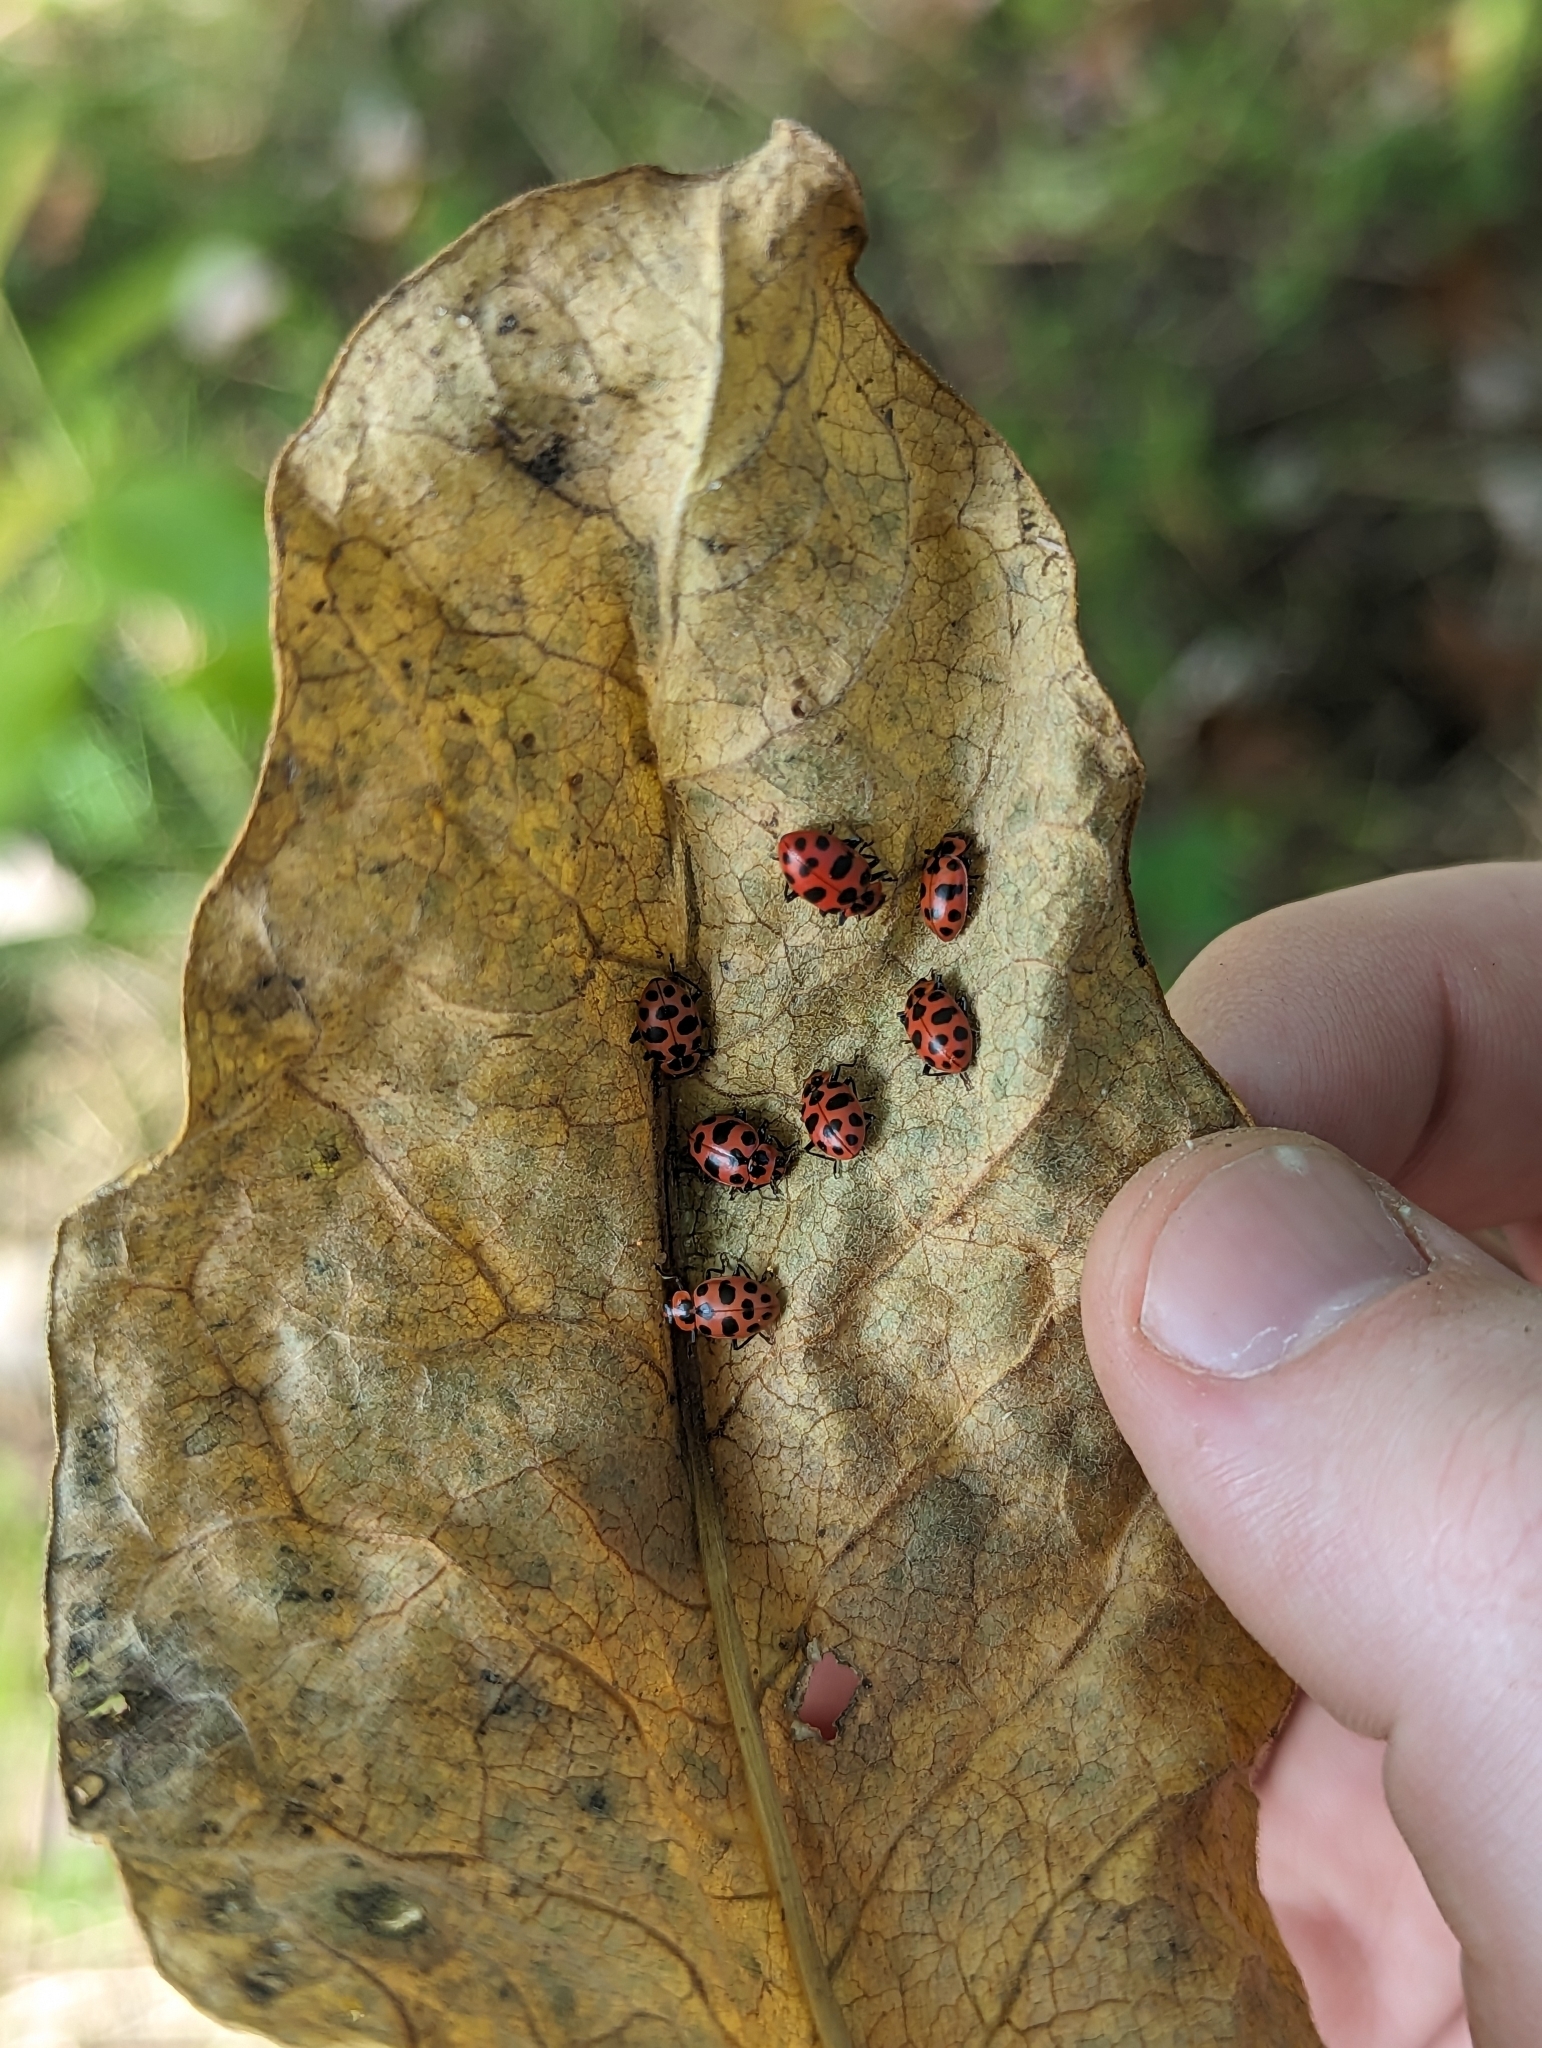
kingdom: Animalia
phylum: Arthropoda
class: Insecta
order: Coleoptera
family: Coccinellidae
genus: Coleomegilla
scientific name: Coleomegilla maculata
